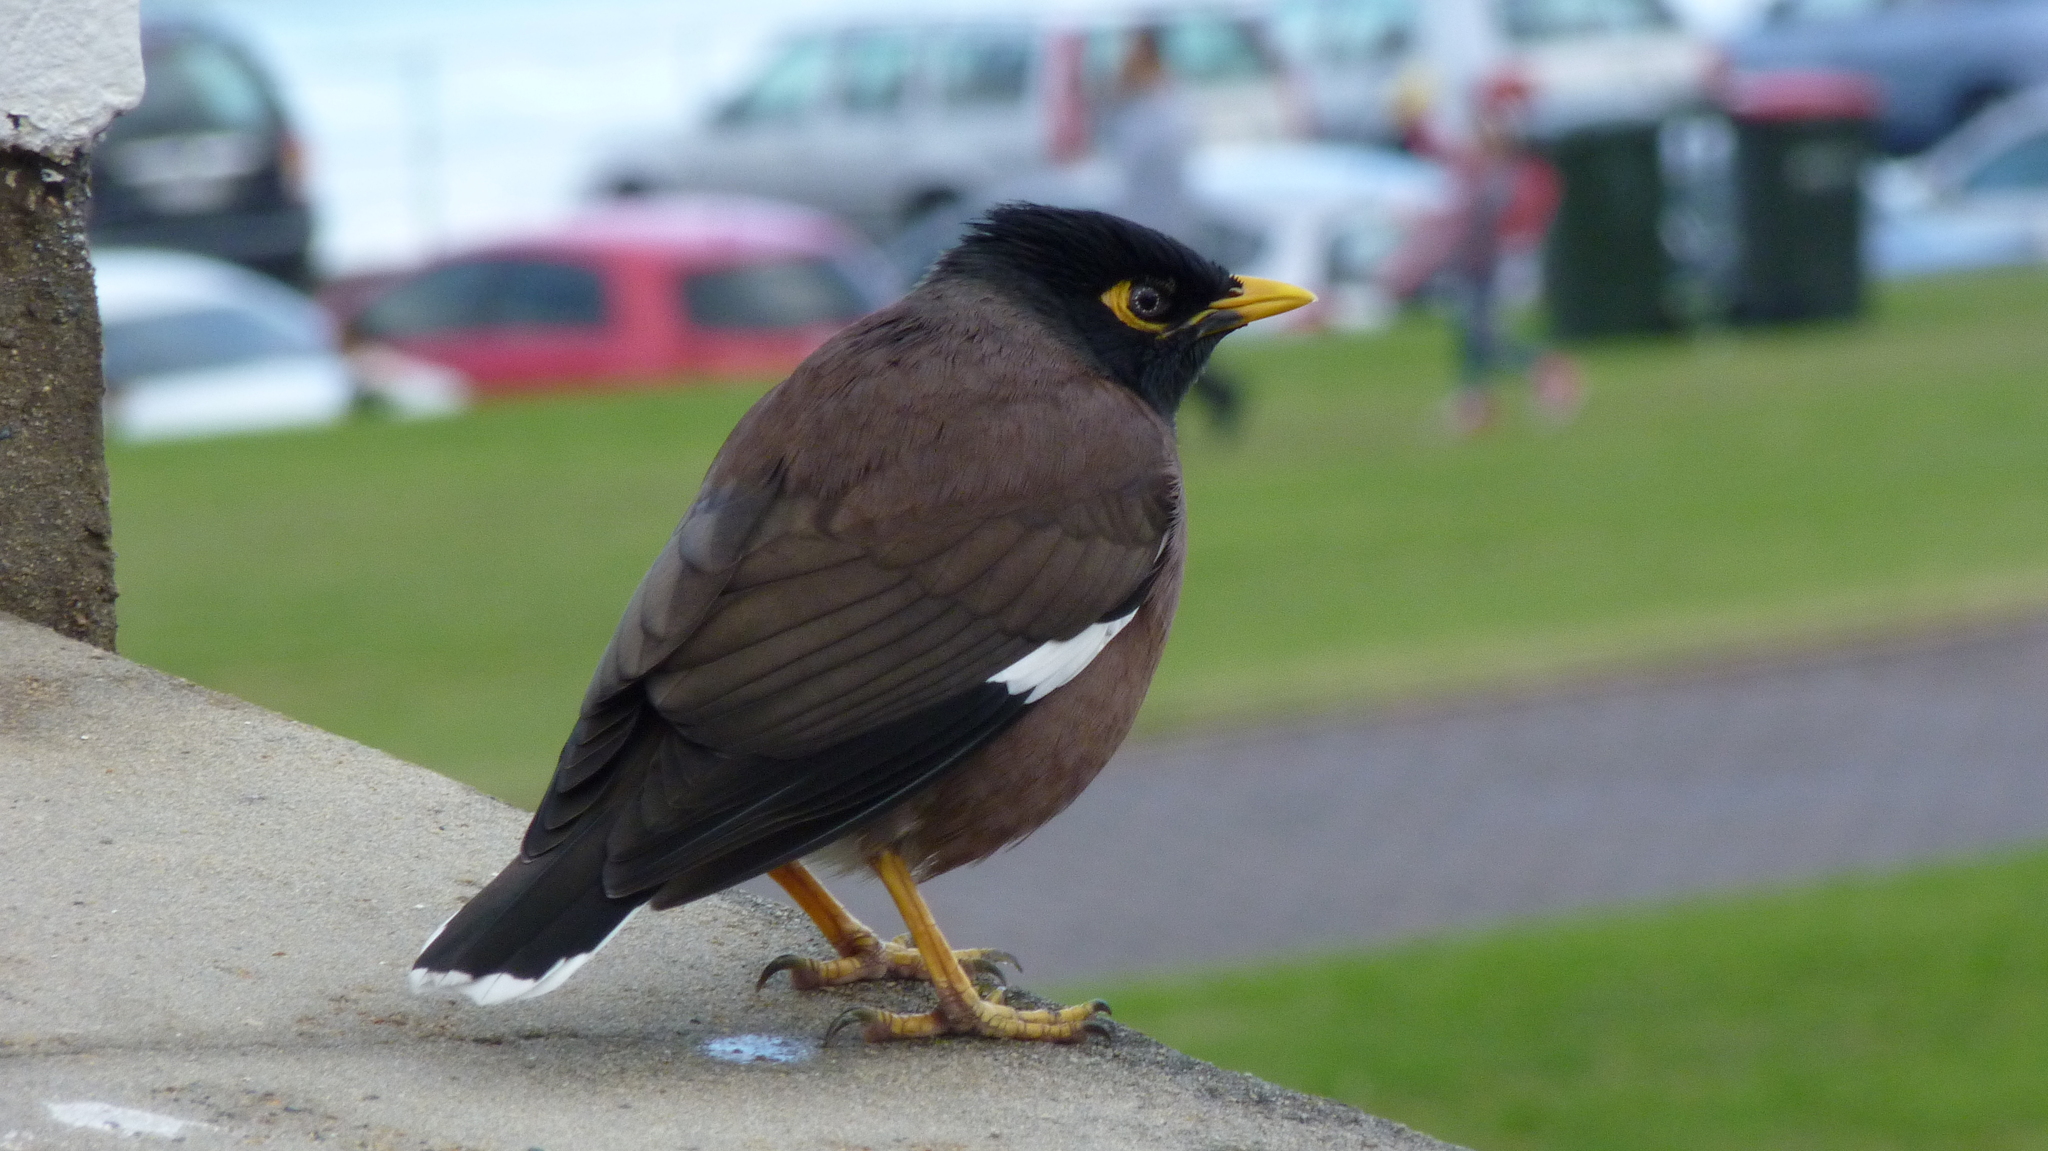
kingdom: Animalia
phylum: Chordata
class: Aves
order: Passeriformes
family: Sturnidae
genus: Acridotheres
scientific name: Acridotheres tristis
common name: Common myna
